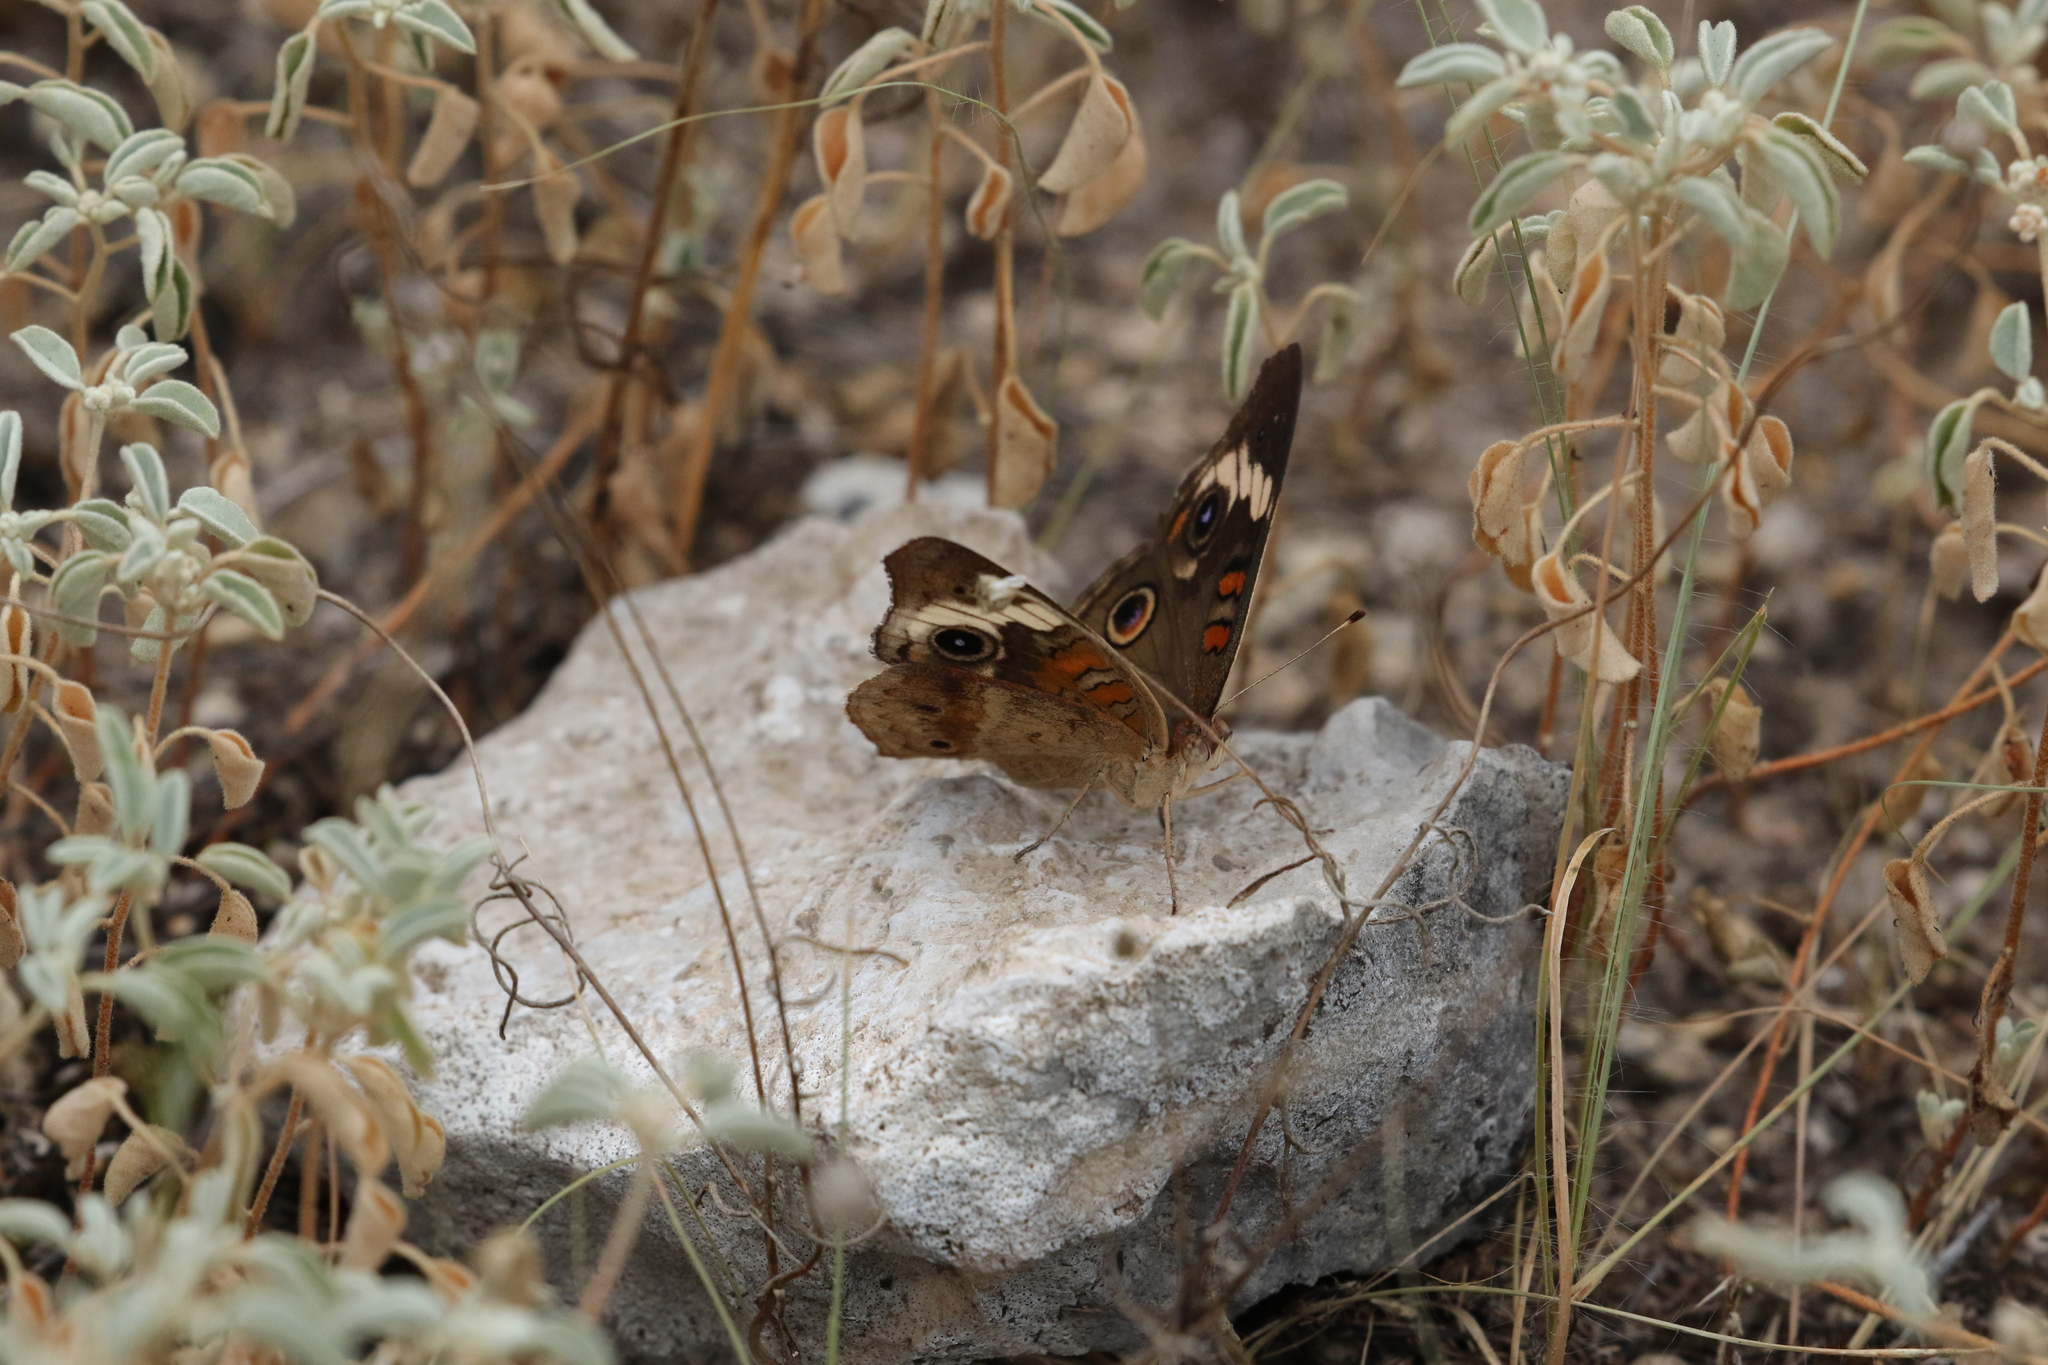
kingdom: Animalia
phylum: Arthropoda
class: Insecta
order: Lepidoptera
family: Nymphalidae
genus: Junonia
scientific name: Junonia coenia
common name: Common buckeye
